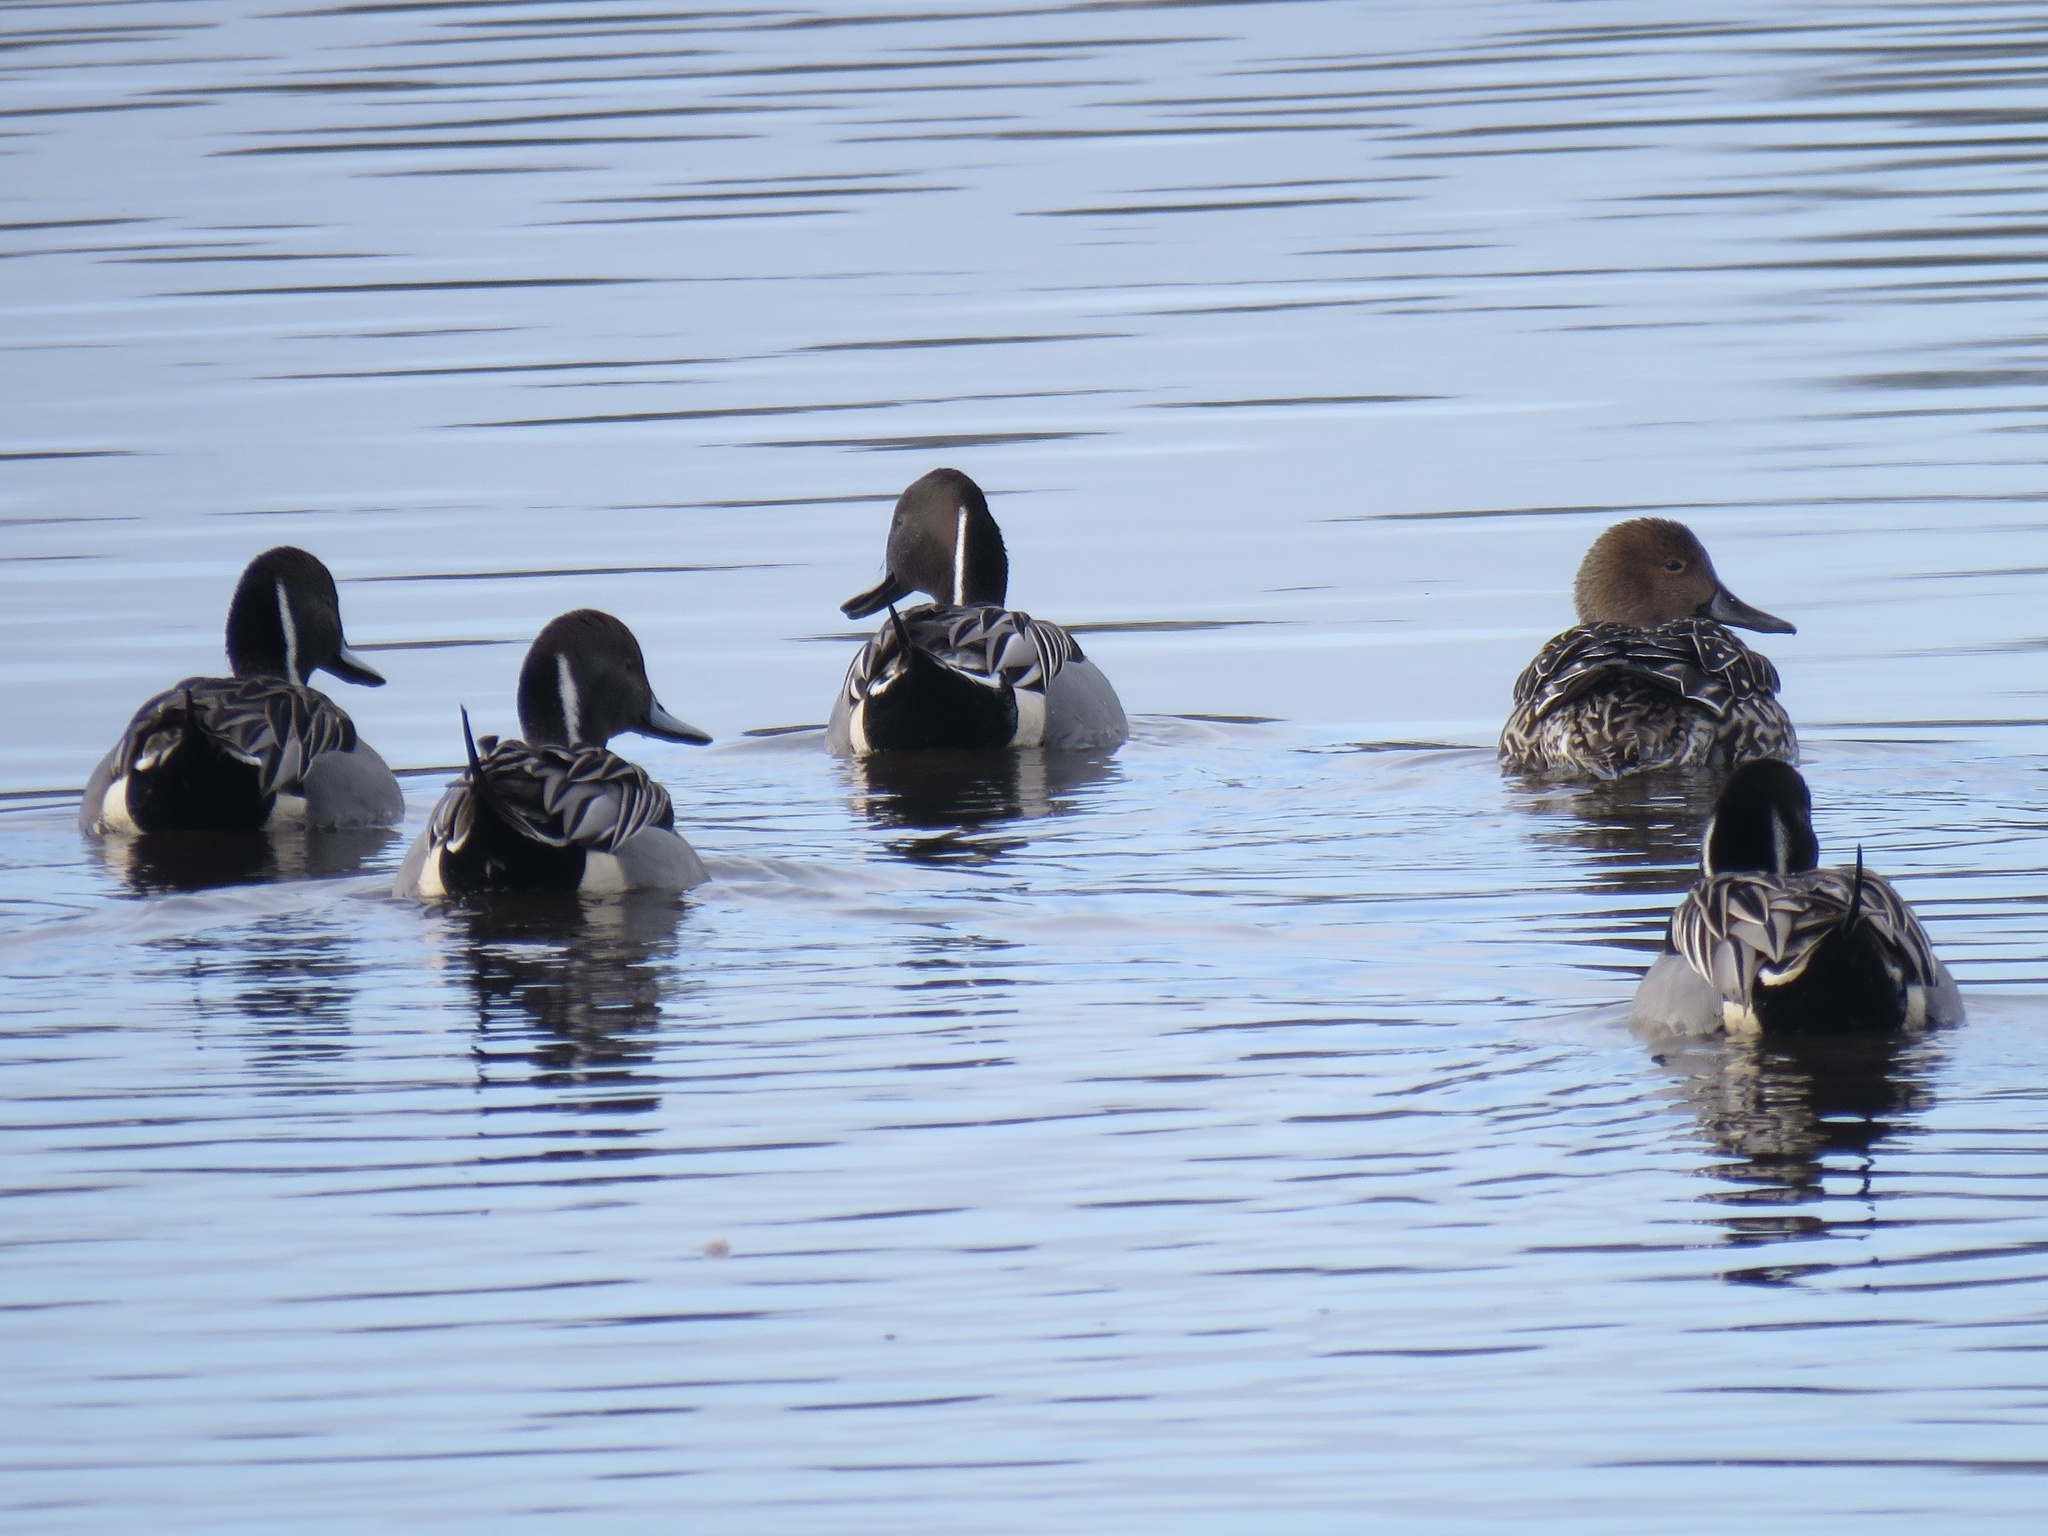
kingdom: Animalia
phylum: Chordata
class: Aves
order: Anseriformes
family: Anatidae
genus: Anas
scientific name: Anas acuta
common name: Northern pintail
